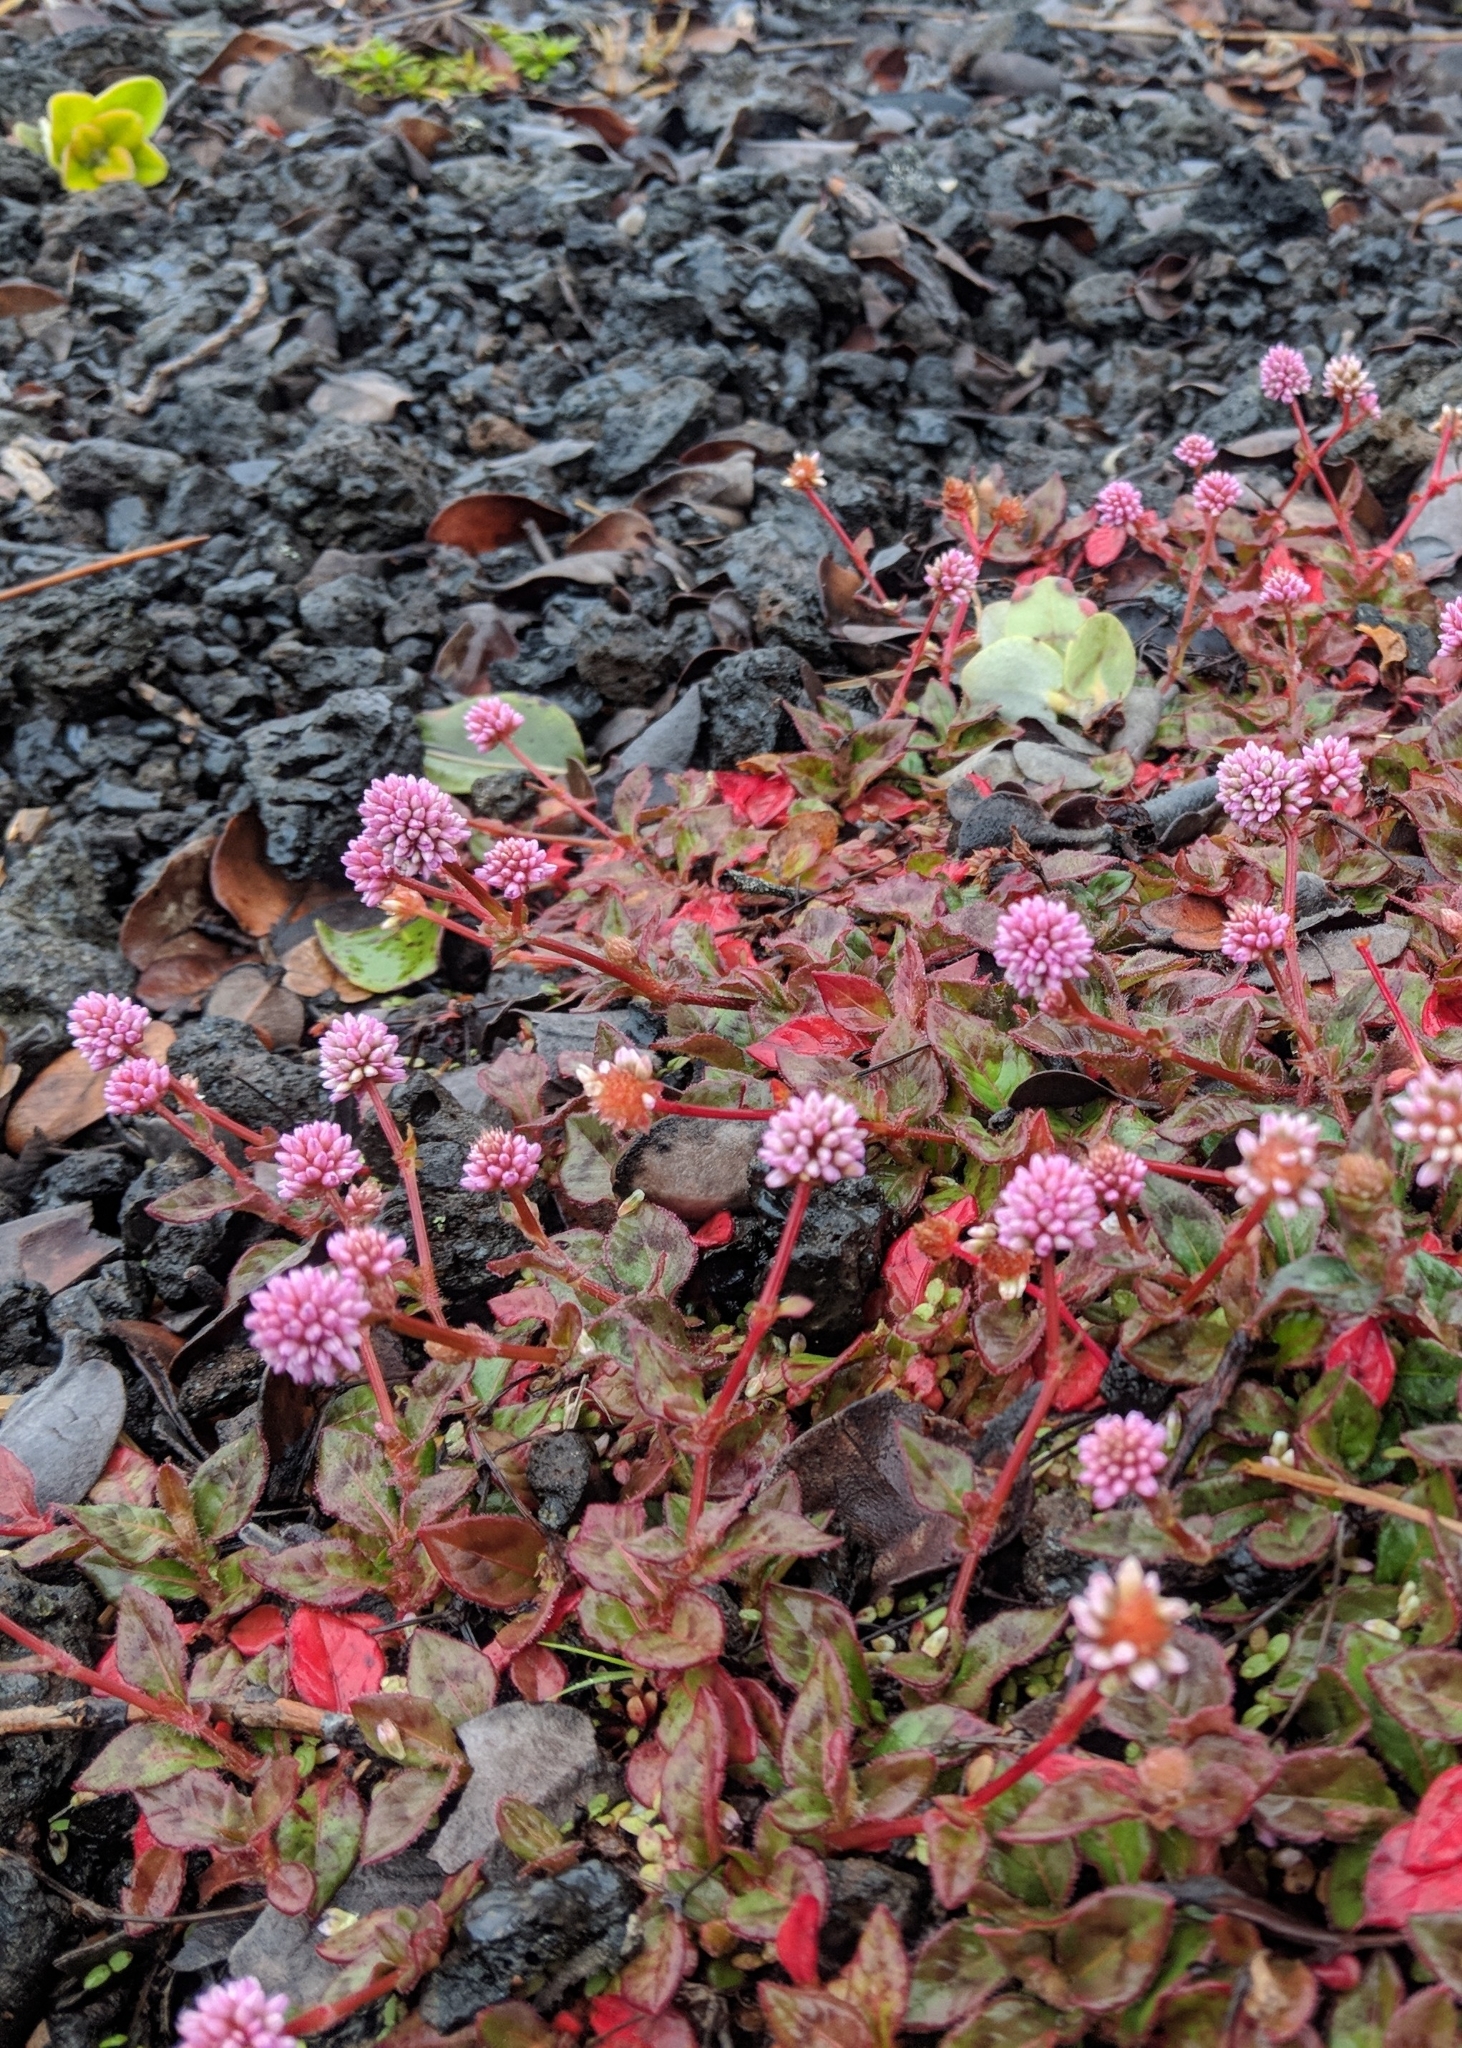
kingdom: Plantae
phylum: Tracheophyta
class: Magnoliopsida
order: Caryophyllales
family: Polygonaceae
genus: Persicaria
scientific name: Persicaria capitata
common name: Pinkhead smartweed
